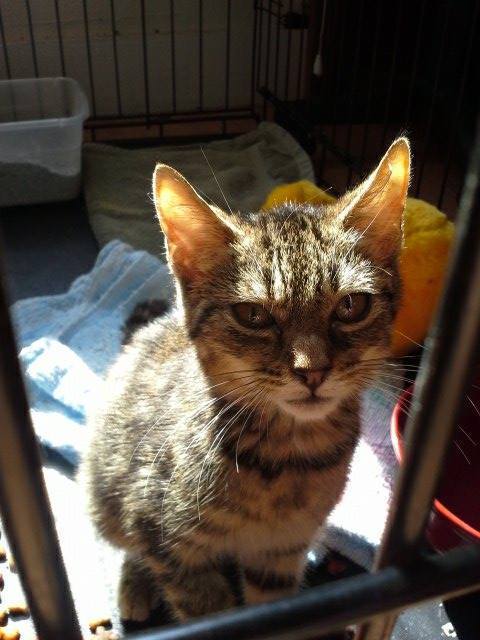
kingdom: Animalia
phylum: Chordata
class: Mammalia
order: Carnivora
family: Felidae
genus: Felis
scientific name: Felis catus
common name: Domestic cat
